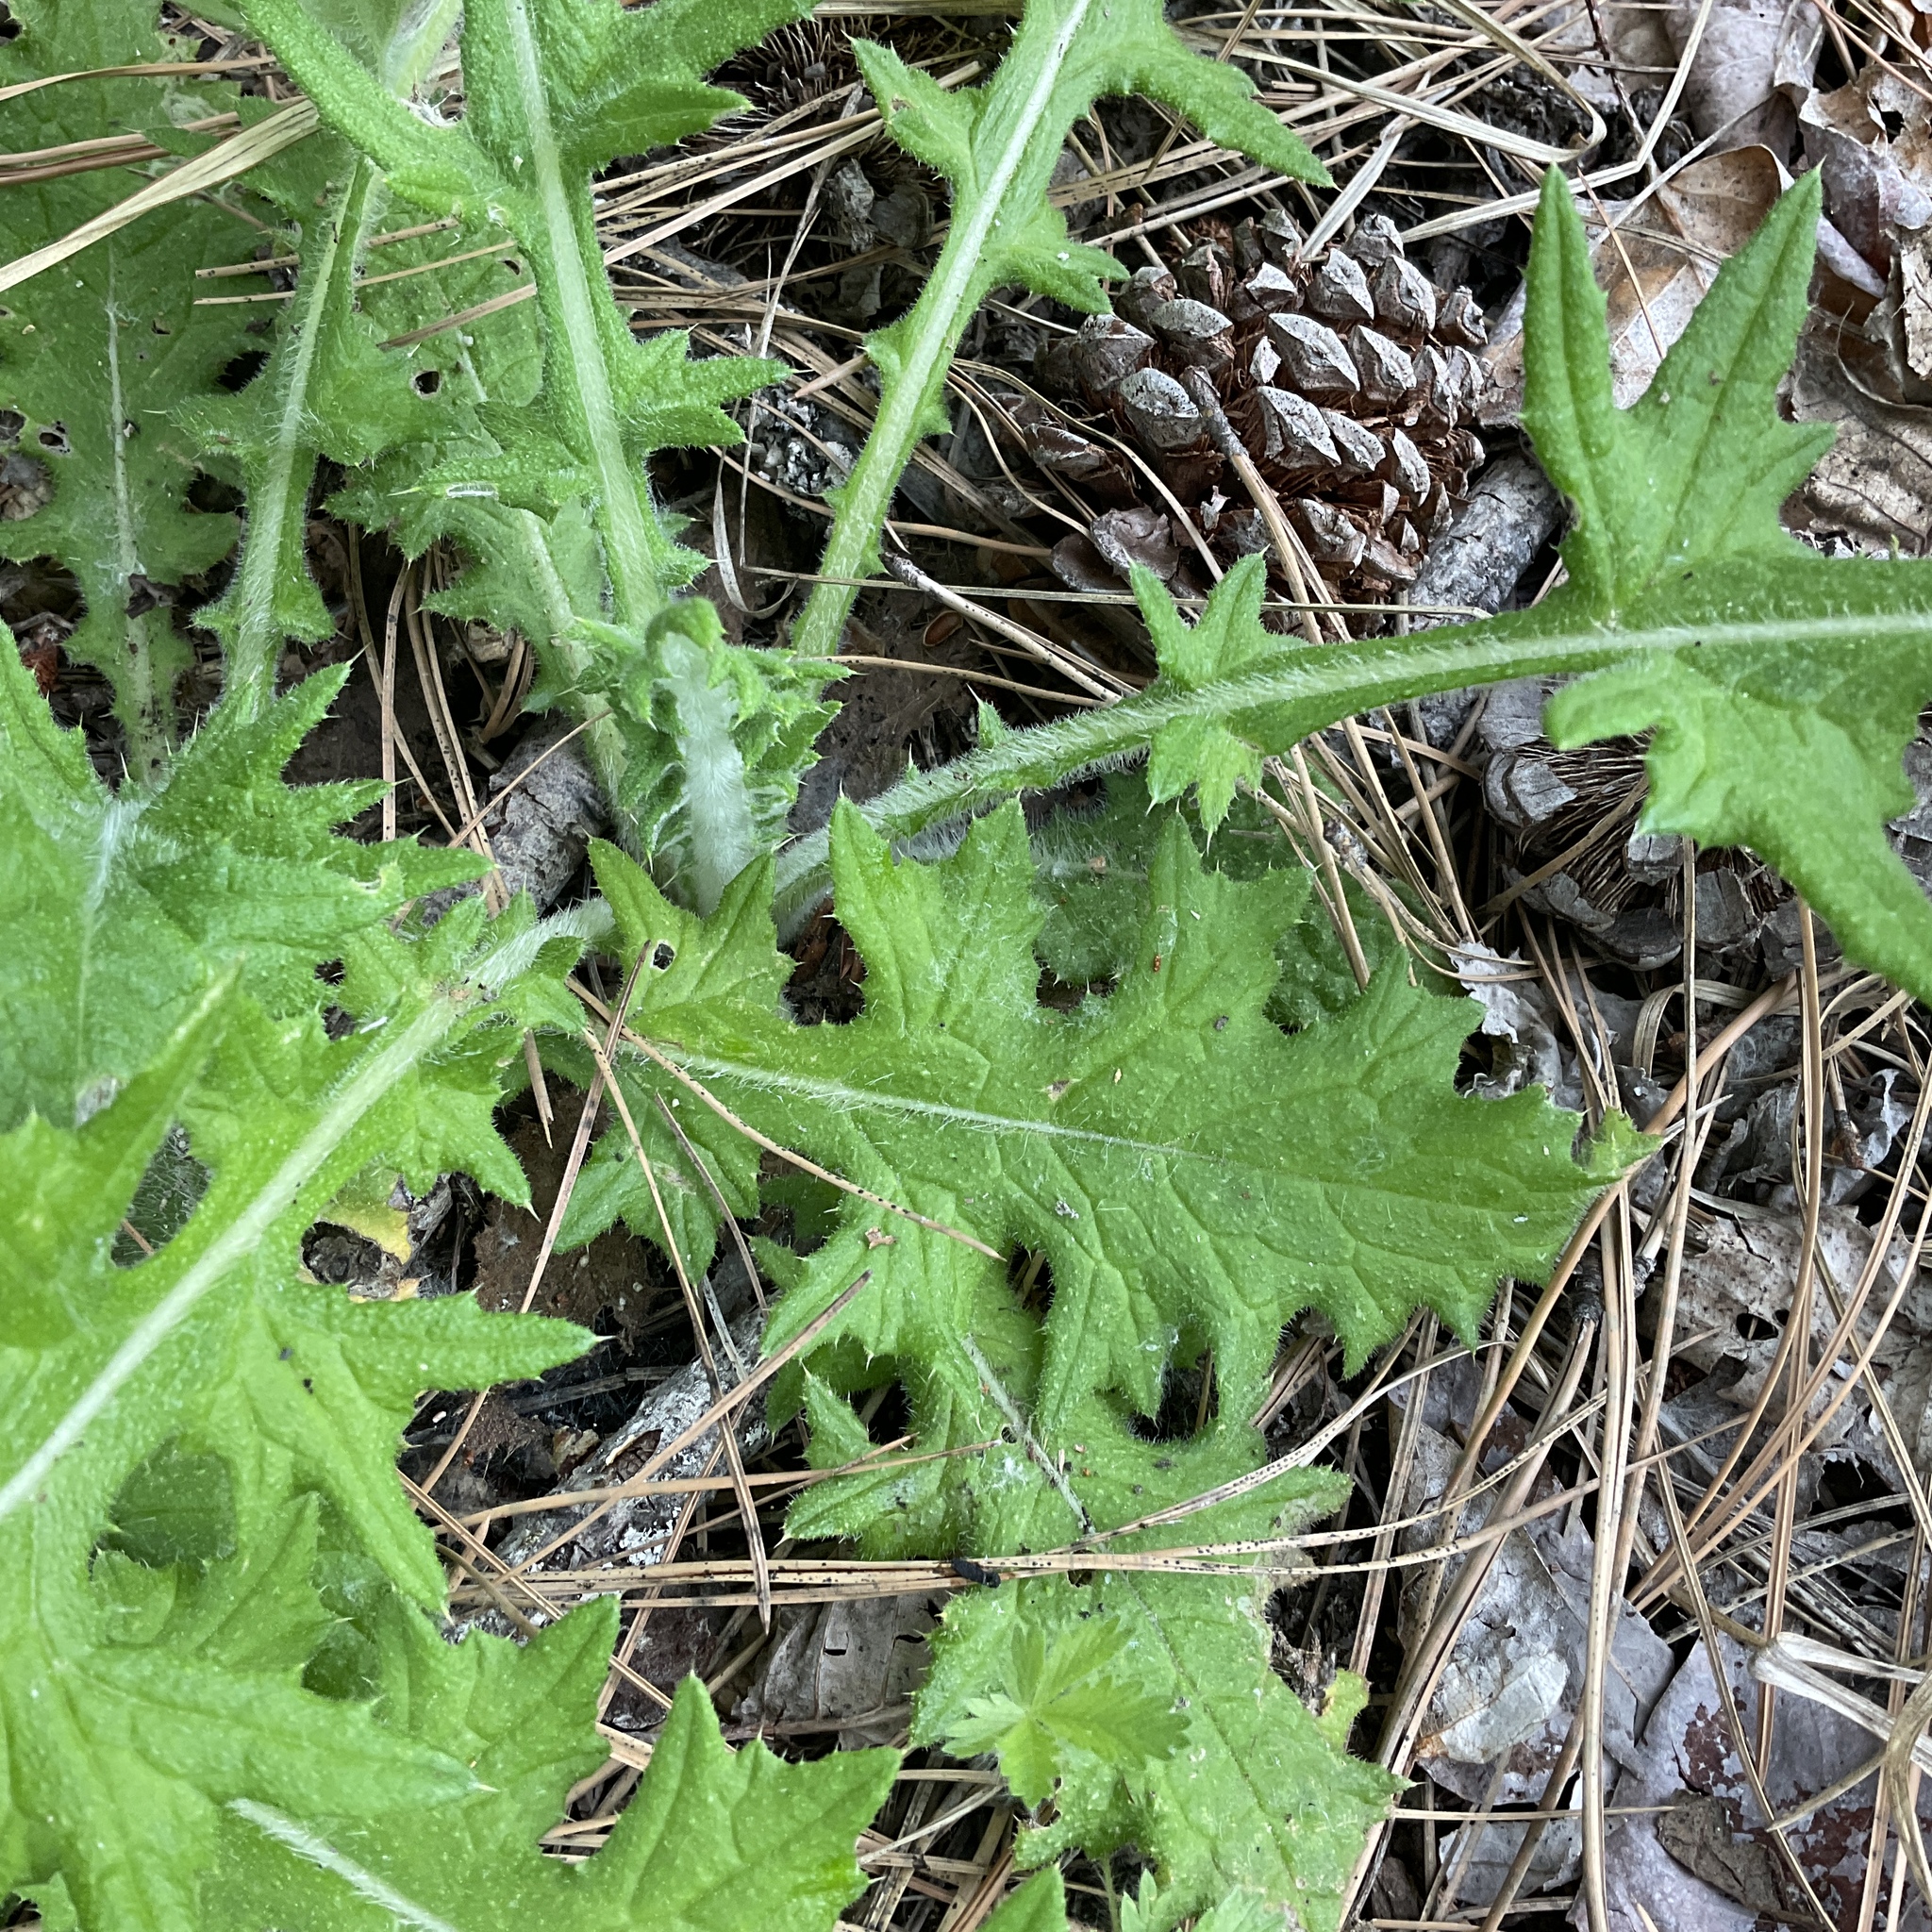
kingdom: Plantae
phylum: Tracheophyta
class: Magnoliopsida
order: Asterales
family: Asteraceae
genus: Cirsium
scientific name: Cirsium vulgare
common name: Bull thistle
